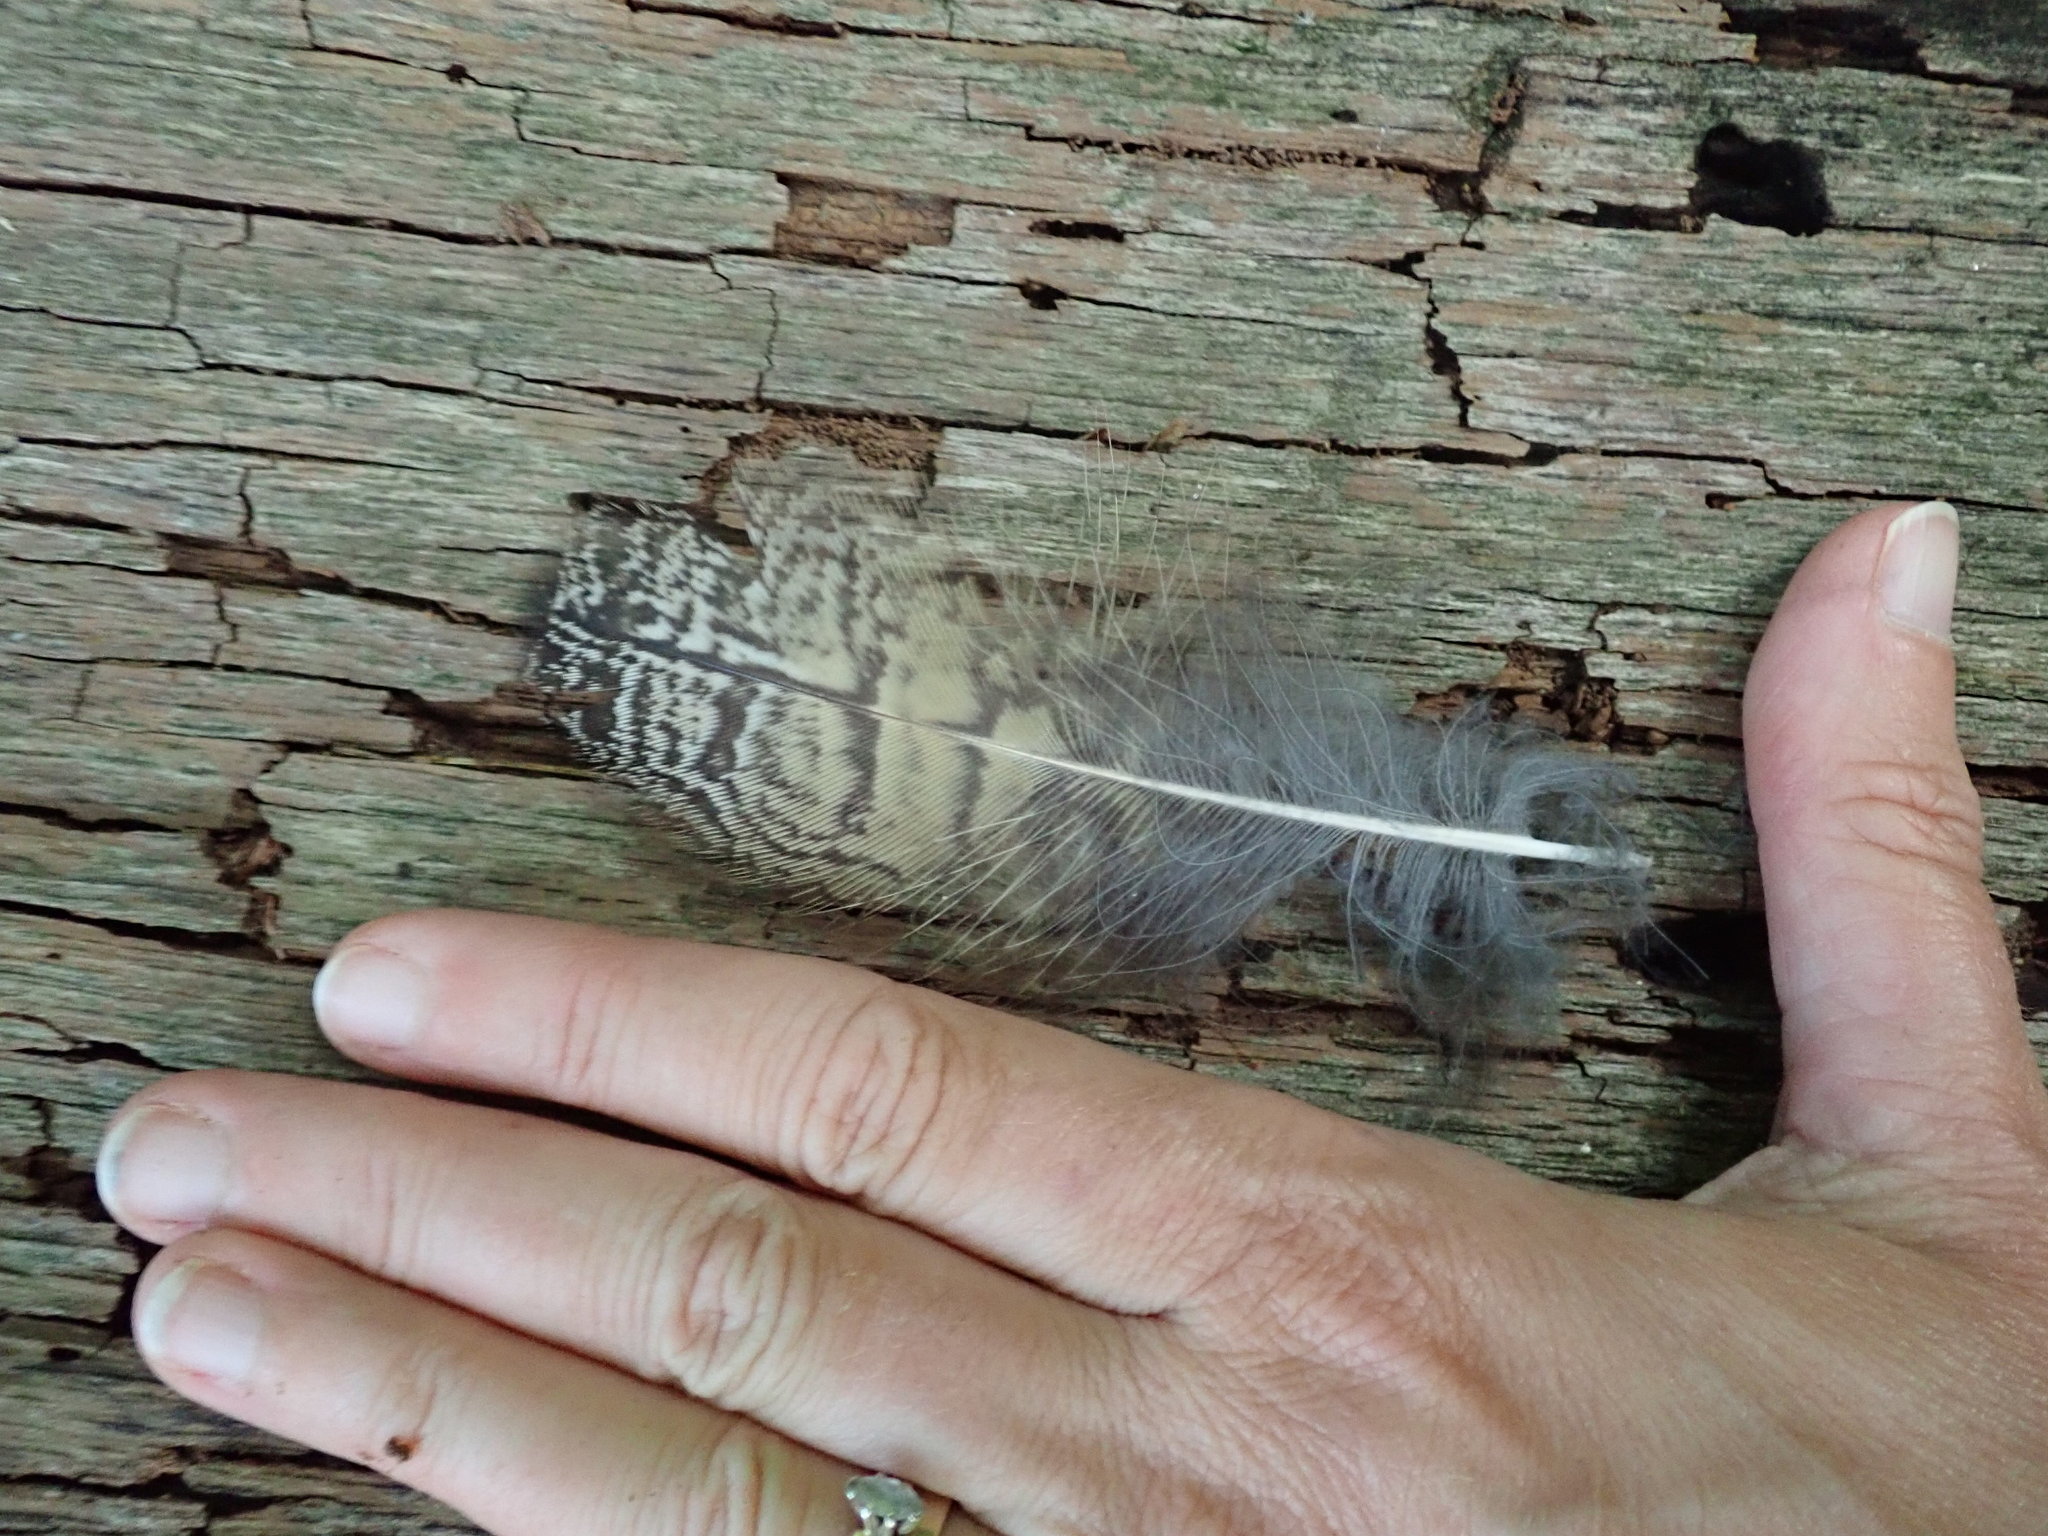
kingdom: Animalia
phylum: Chordata
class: Aves
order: Strigiformes
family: Strigidae
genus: Bubo
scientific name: Bubo virginianus
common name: Great horned owl
